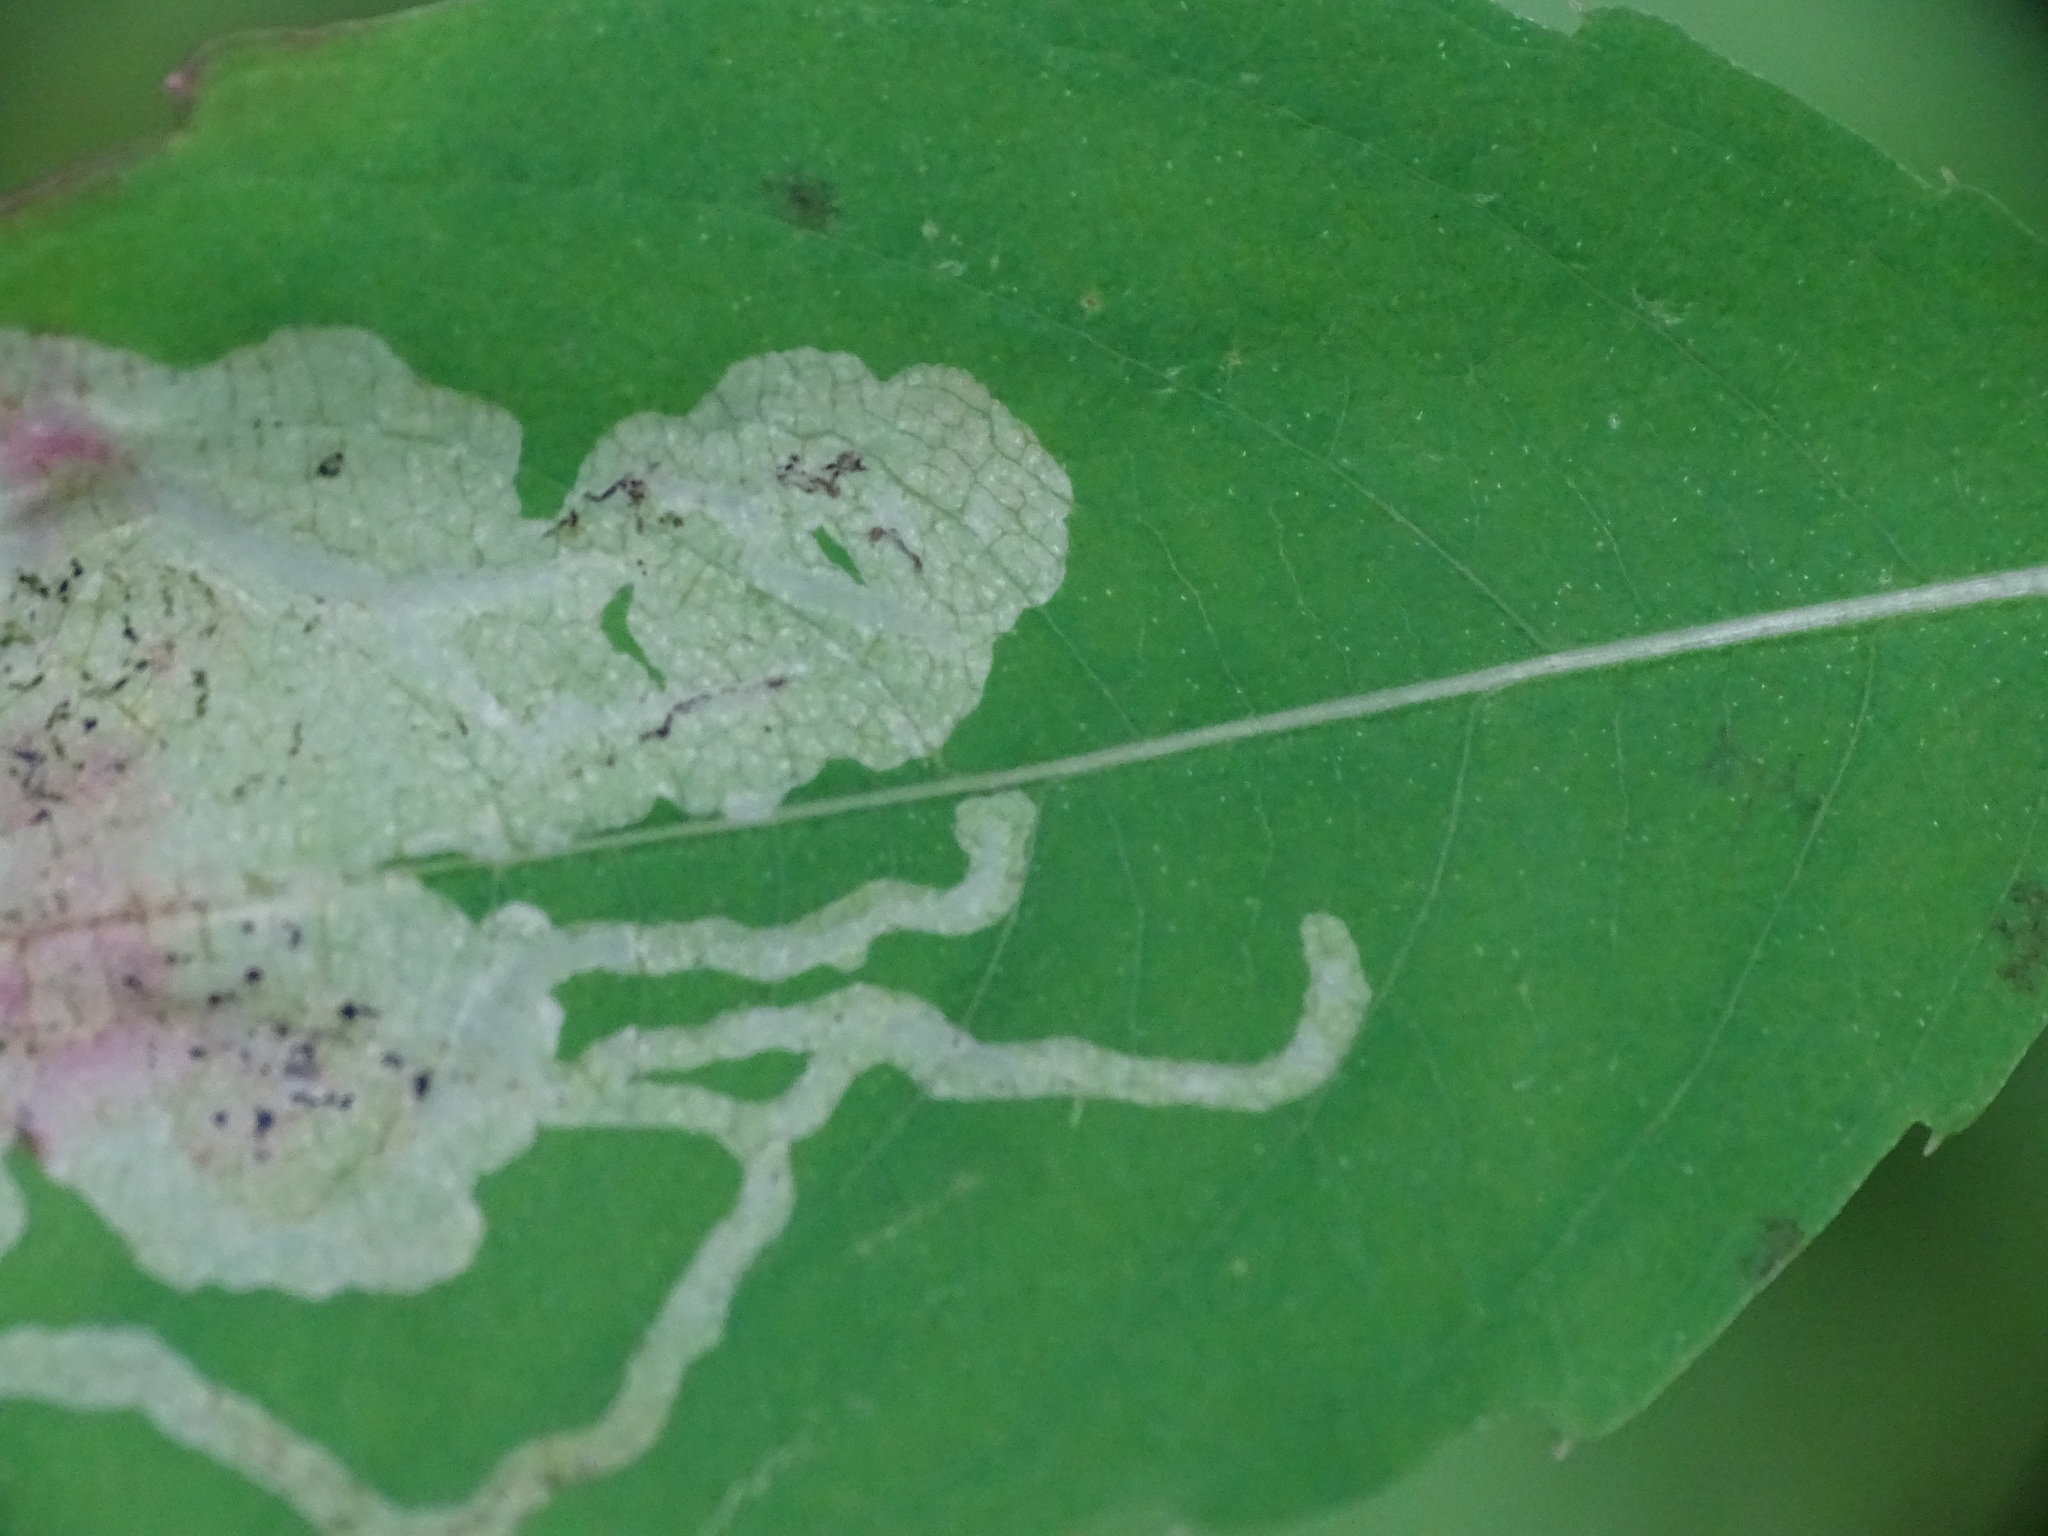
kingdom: Animalia
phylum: Arthropoda
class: Insecta
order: Diptera
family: Agromyzidae
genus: Phytoliriomyza
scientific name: Phytoliriomyza melampyga
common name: Jewelweed leaf-miner fly
